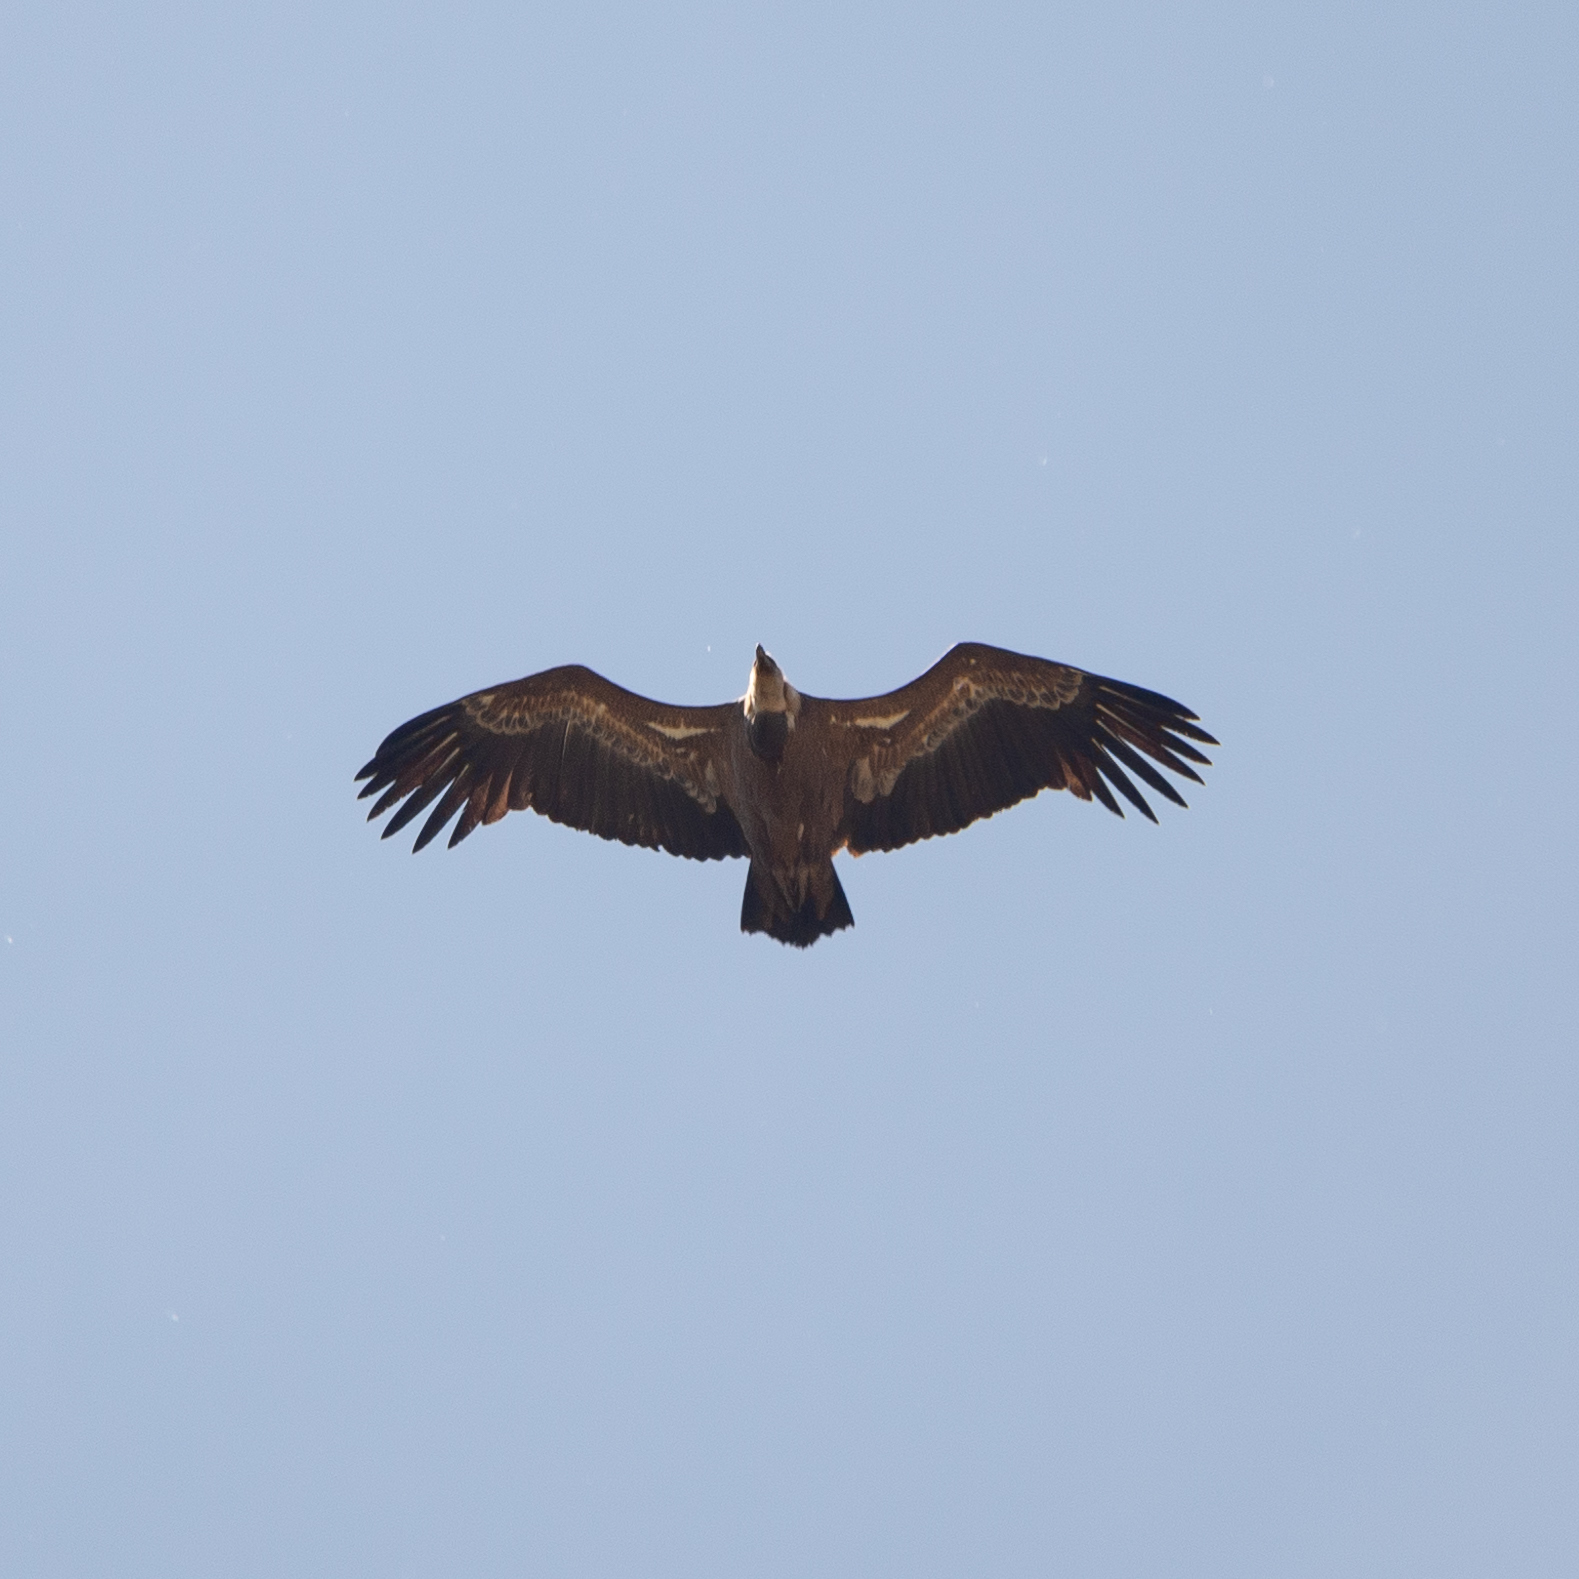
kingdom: Animalia
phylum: Chordata
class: Aves
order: Accipitriformes
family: Accipitridae
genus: Gyps
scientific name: Gyps fulvus
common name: Griffon vulture
